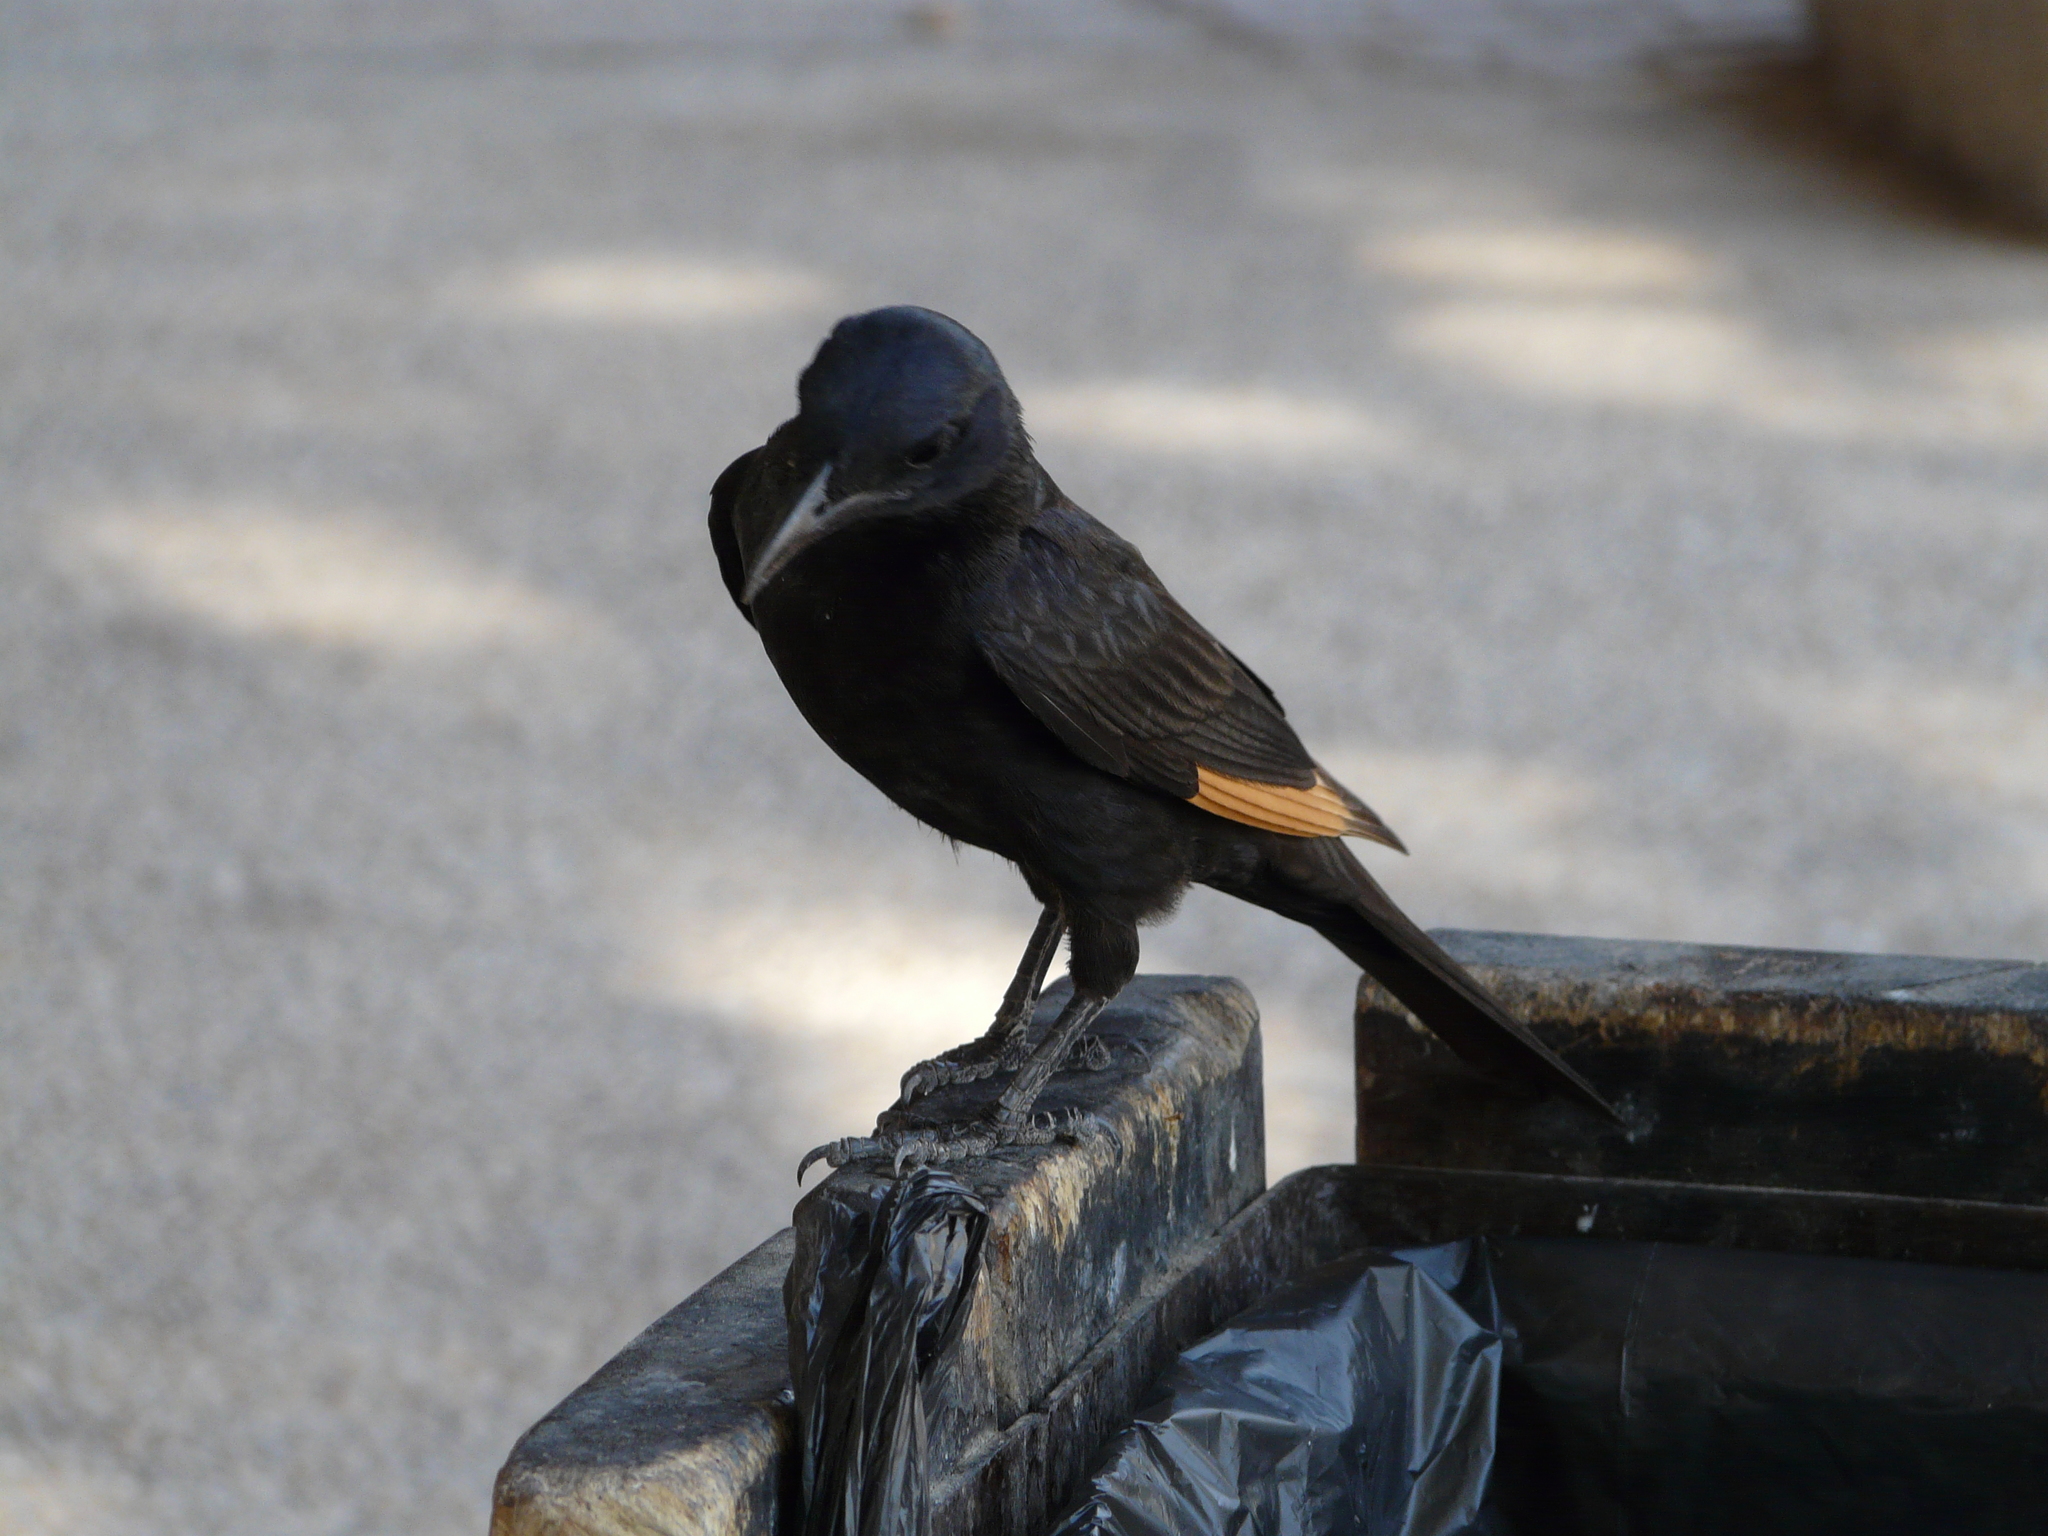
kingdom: Animalia
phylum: Chordata
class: Aves
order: Passeriformes
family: Sturnidae
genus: Onychognathus
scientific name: Onychognathus tristramii
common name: Tristram's starling
